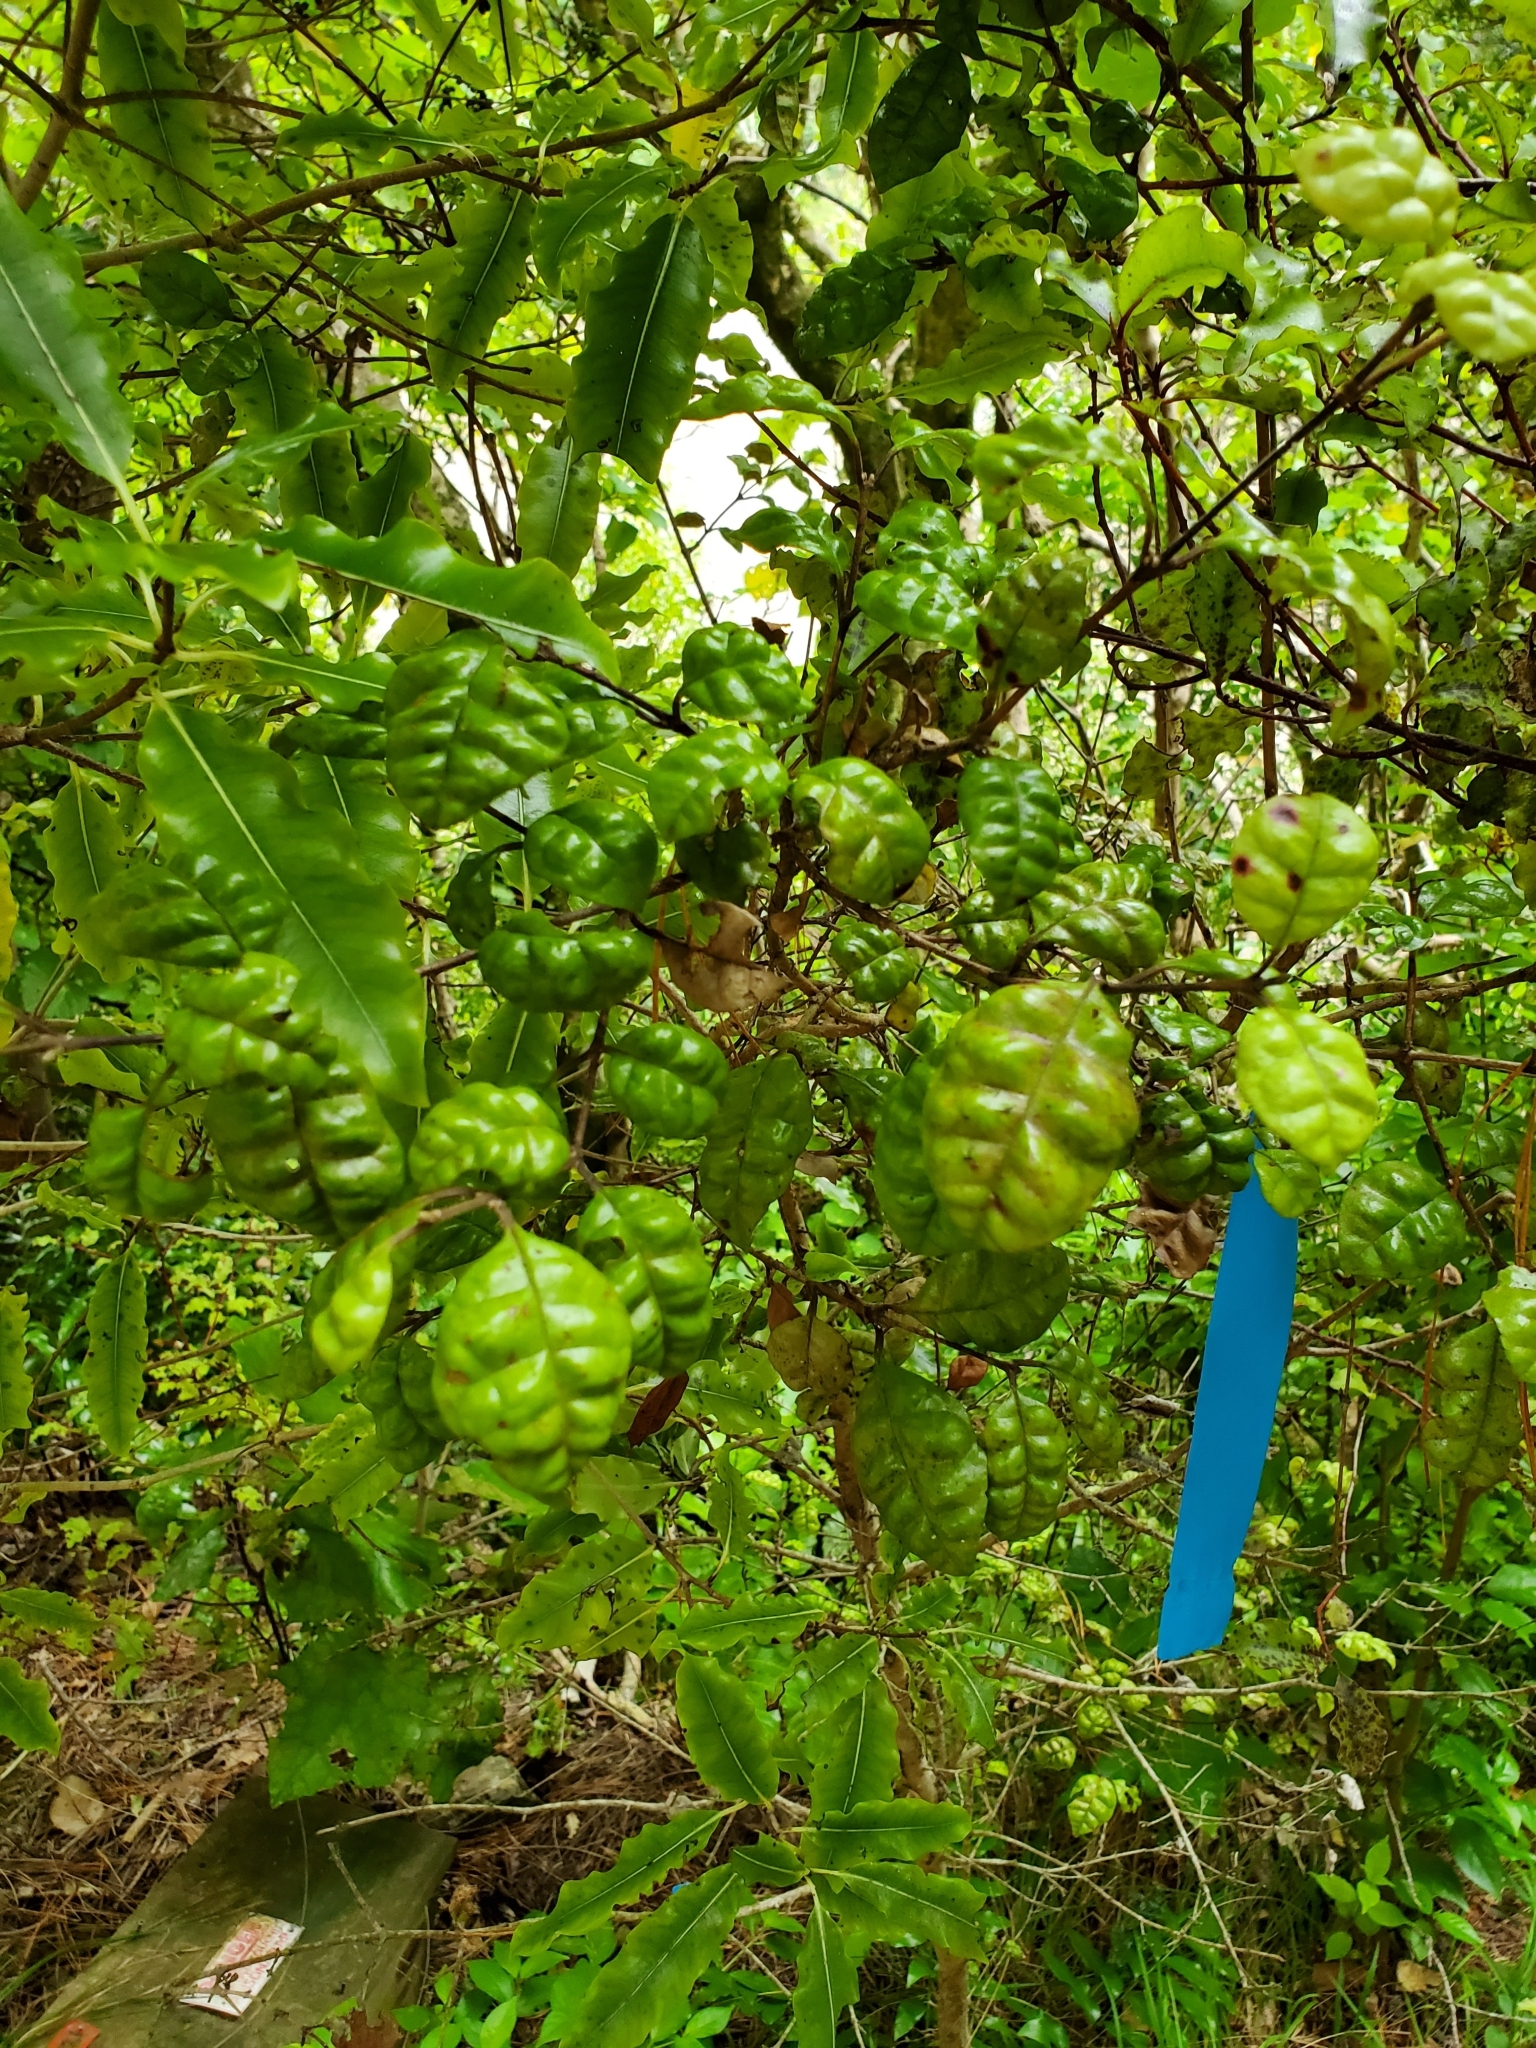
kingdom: Plantae
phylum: Tracheophyta
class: Magnoliopsida
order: Myrtales
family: Myrtaceae
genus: Lophomyrtus
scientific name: Lophomyrtus bullata
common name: Rama rama
